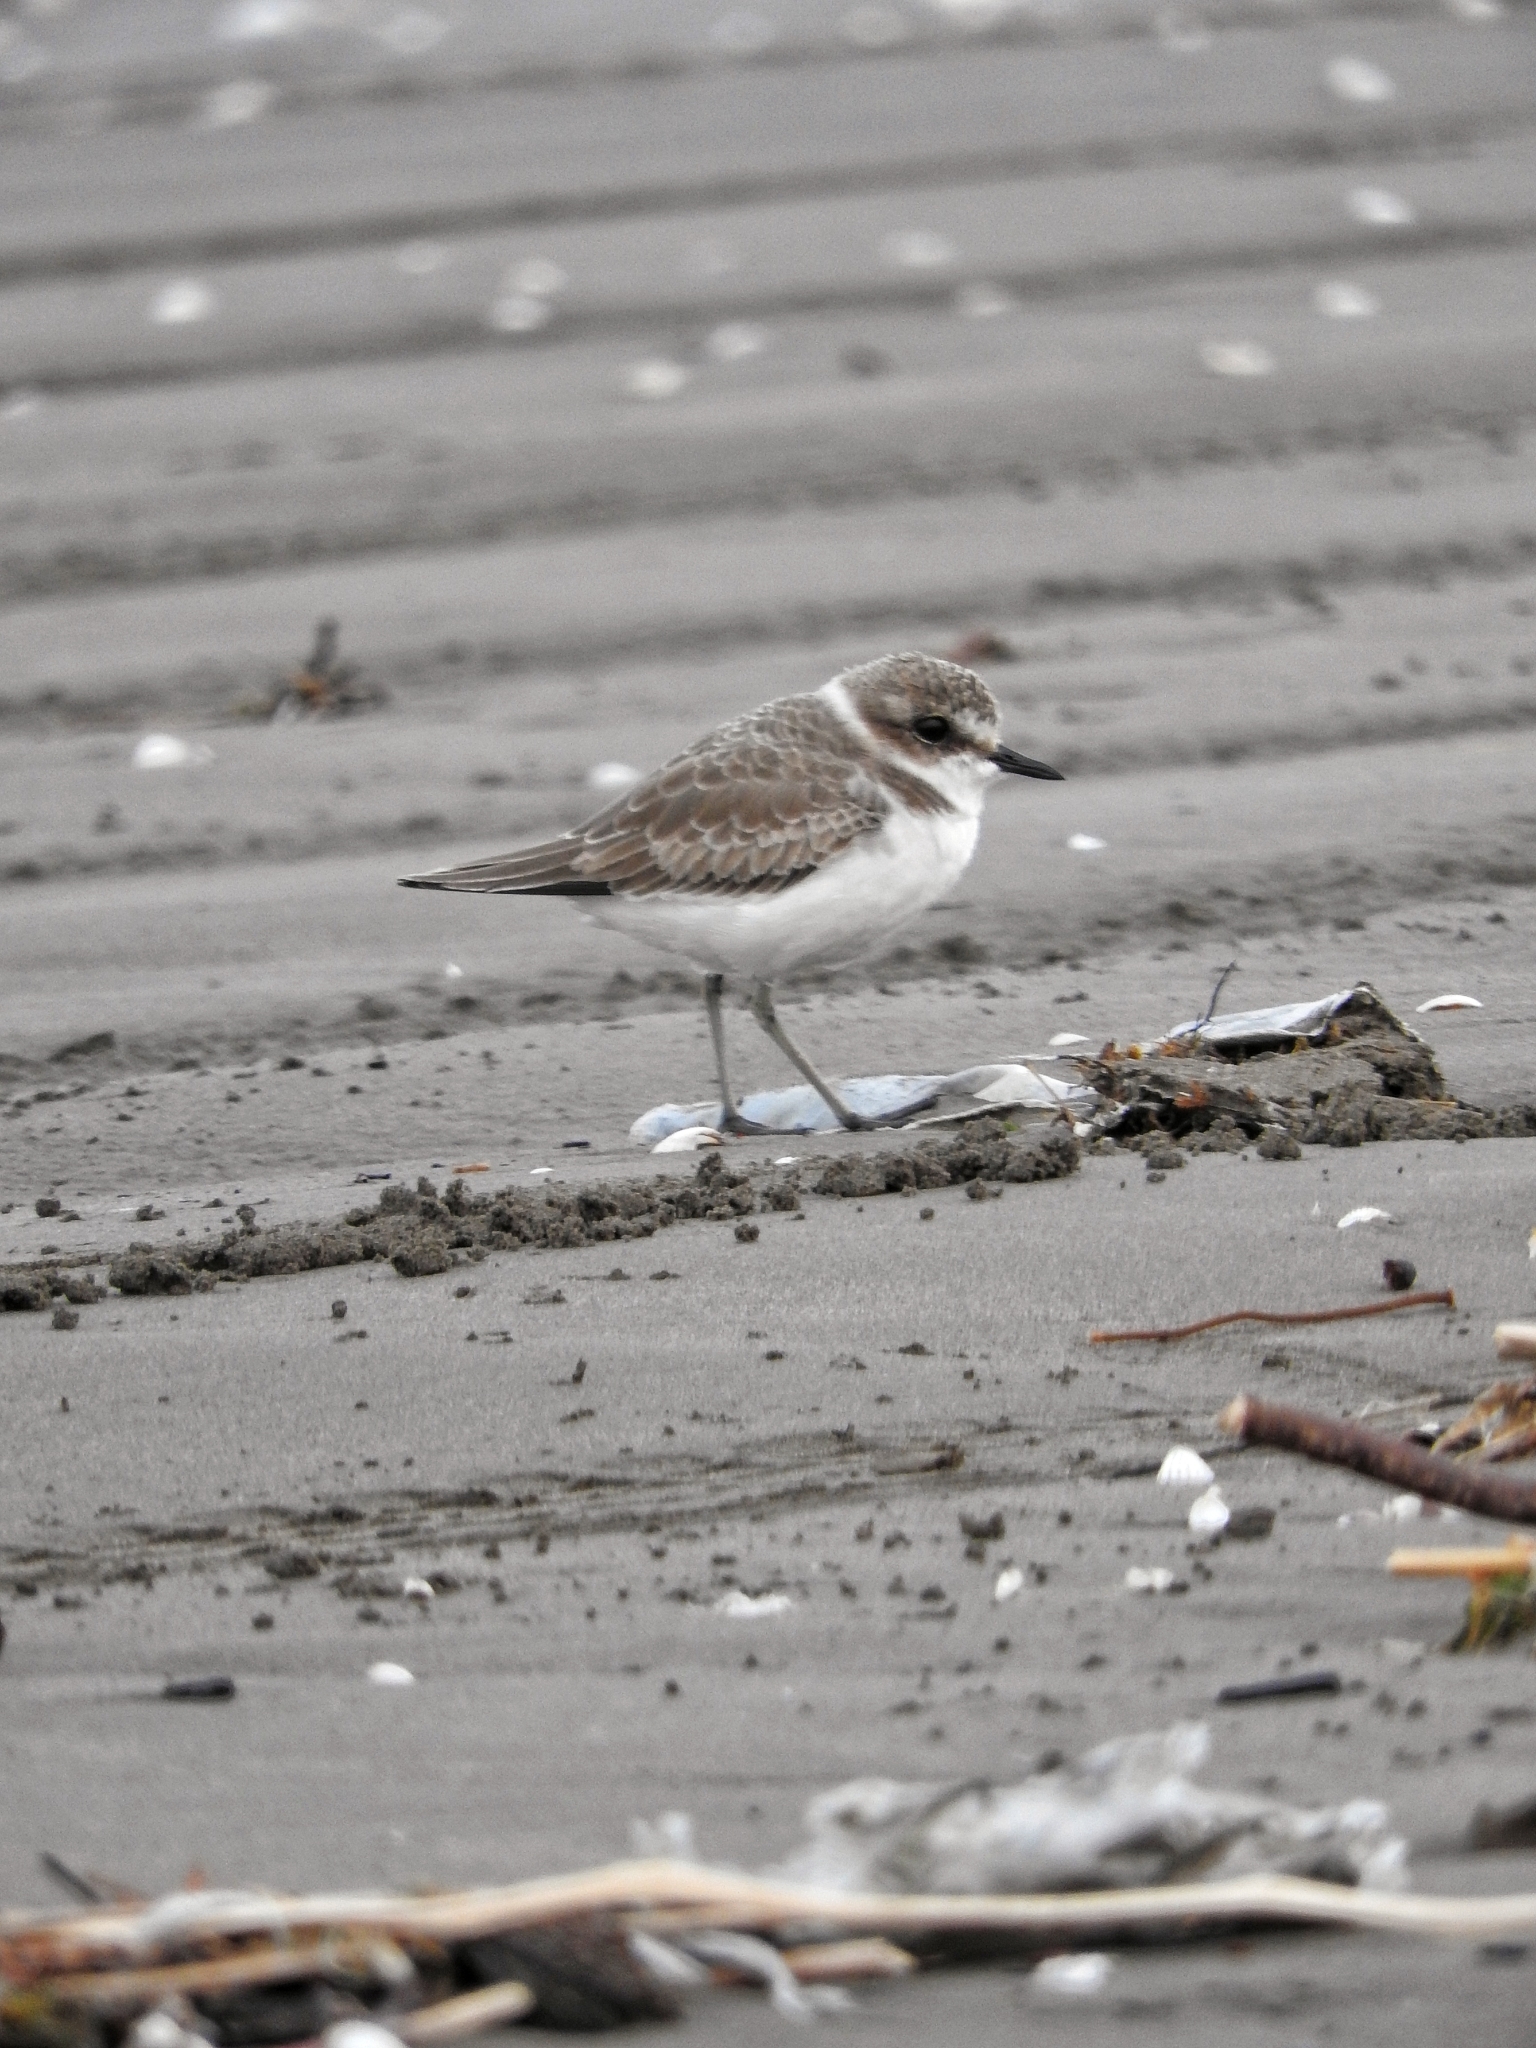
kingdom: Animalia
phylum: Chordata
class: Aves
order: Charadriiformes
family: Charadriidae
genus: Charadrius
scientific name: Charadrius alexandrinus
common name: Kentish plover
